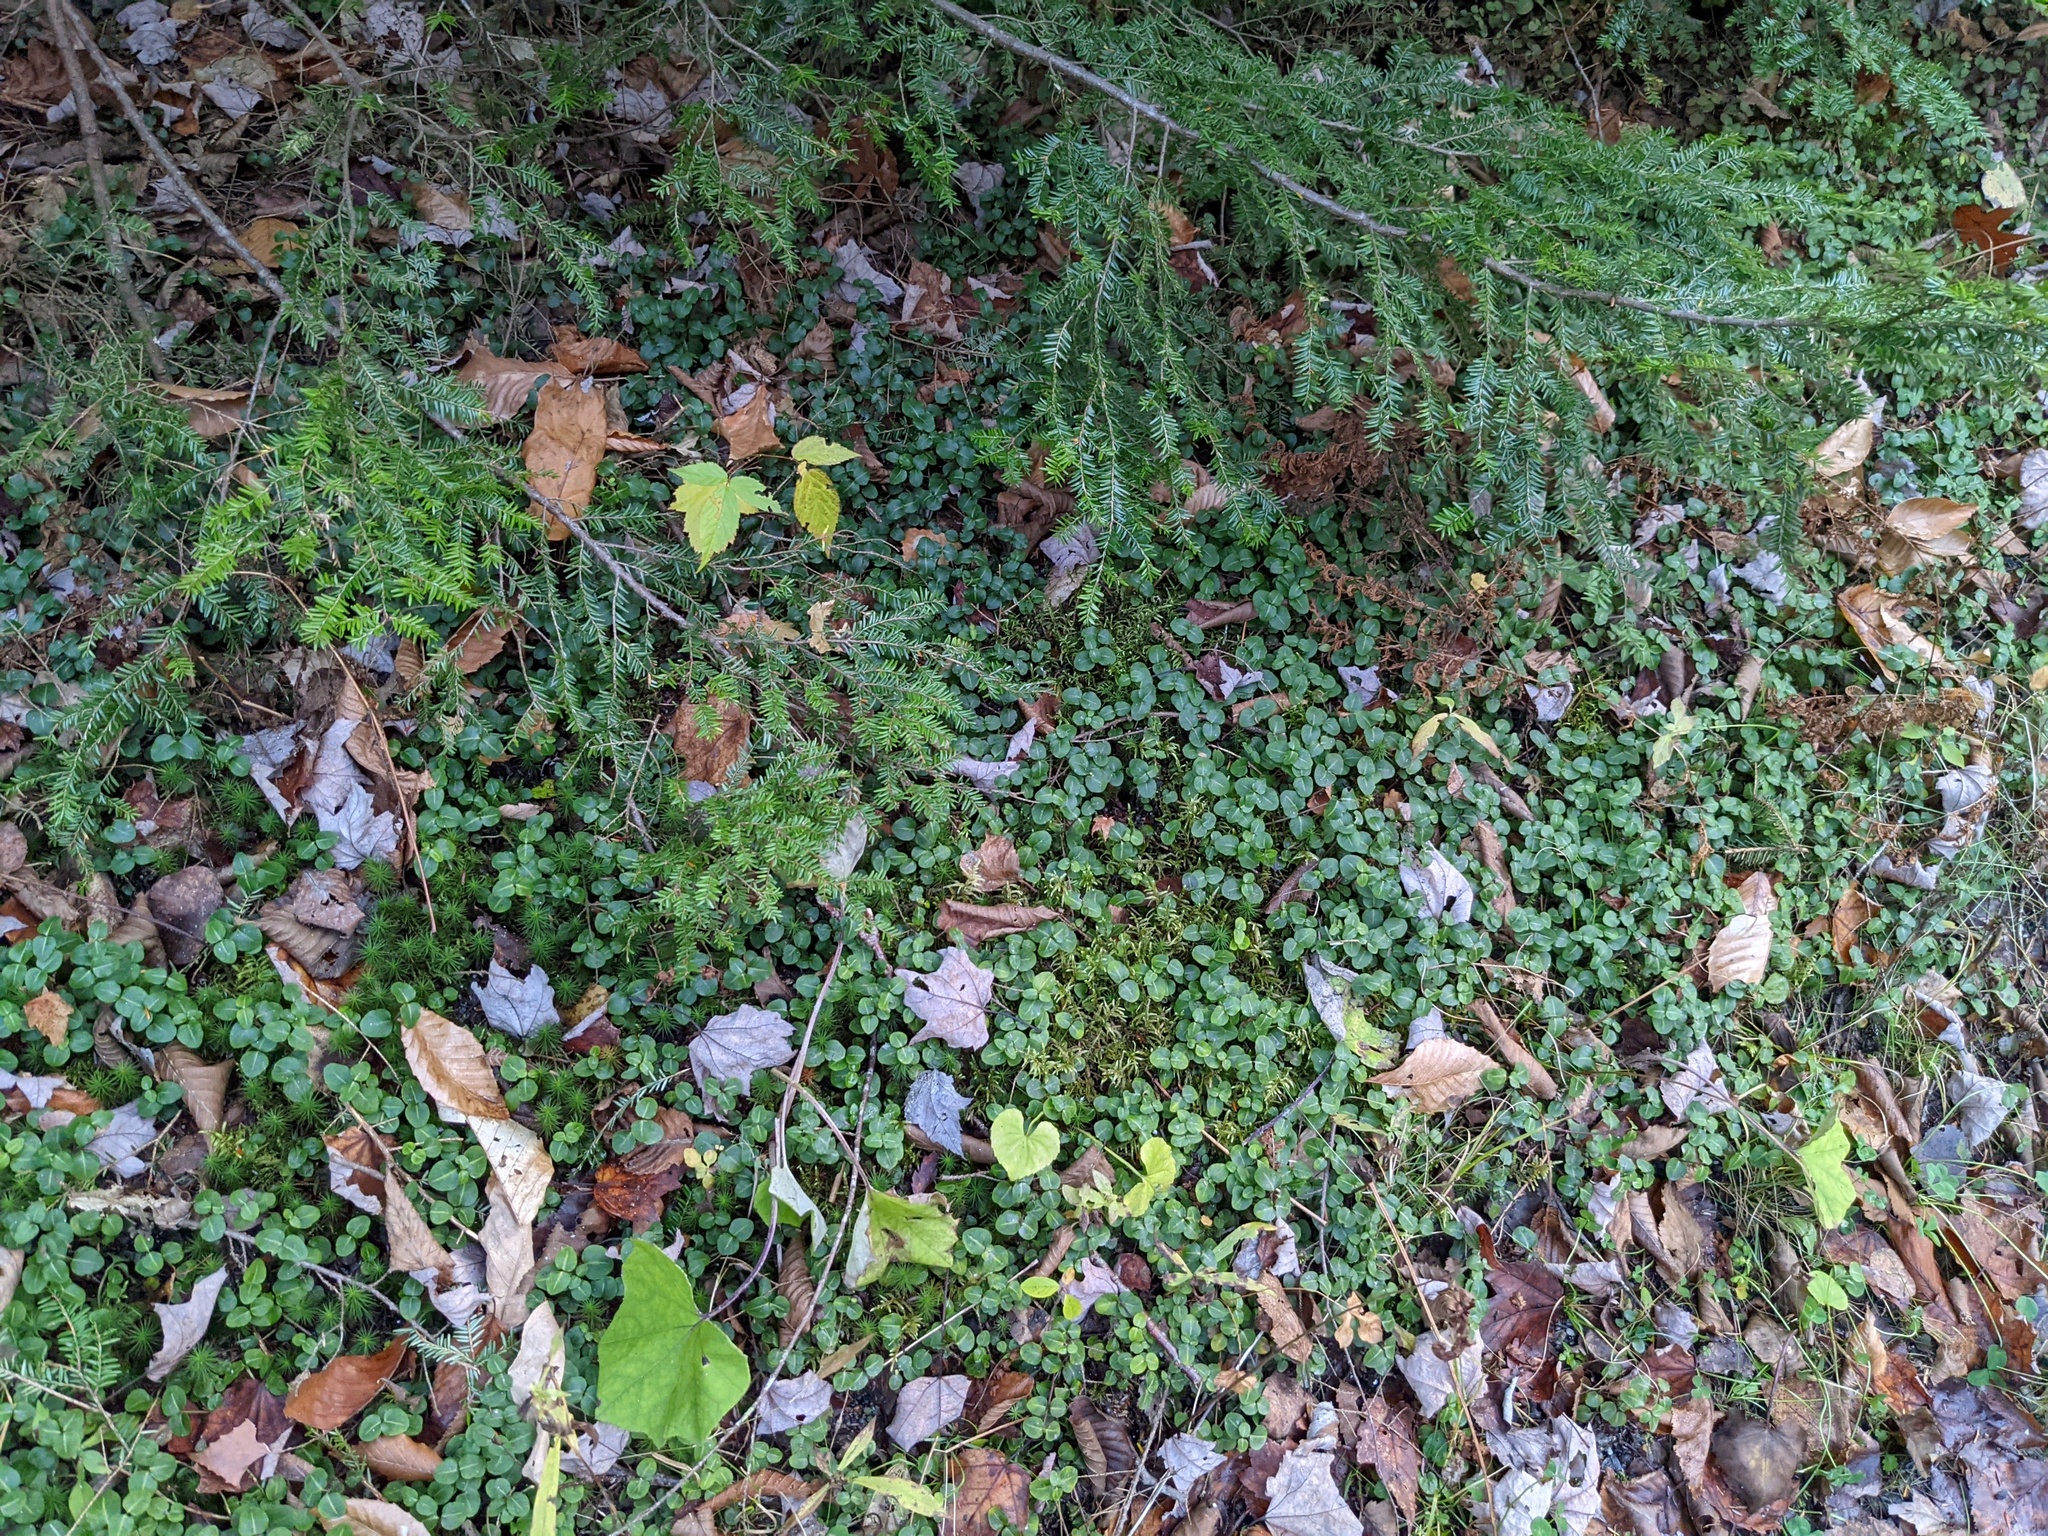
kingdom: Plantae
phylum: Tracheophyta
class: Magnoliopsida
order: Gentianales
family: Rubiaceae
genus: Mitchella
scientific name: Mitchella repens
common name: Partridge-berry
